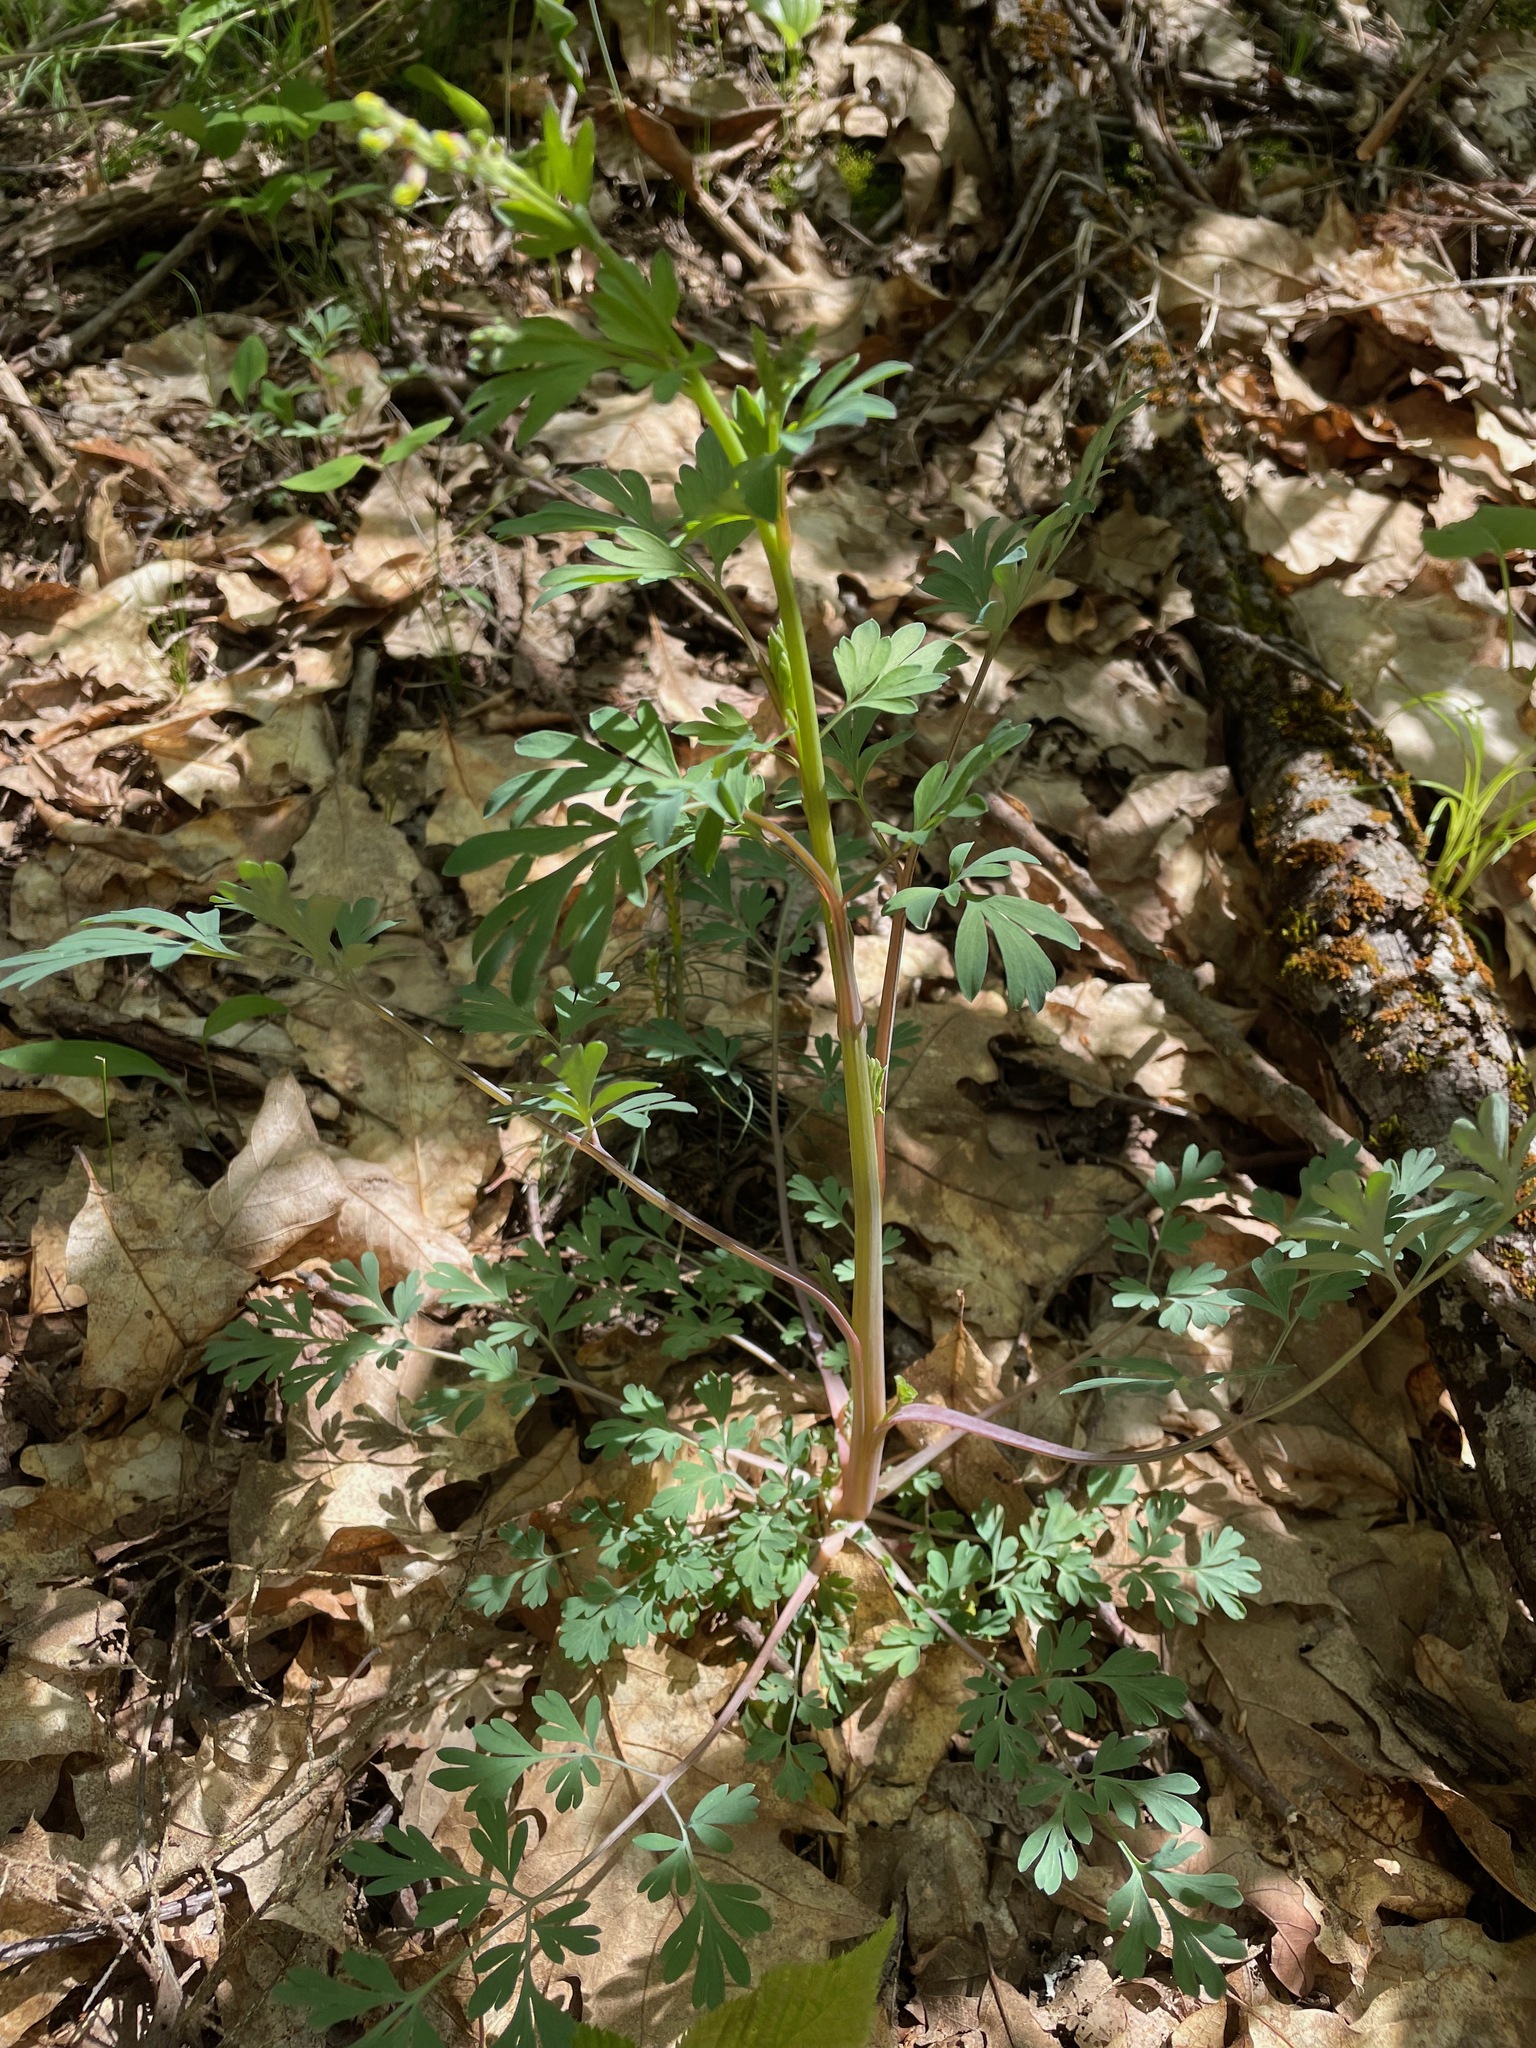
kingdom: Plantae
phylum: Tracheophyta
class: Magnoliopsida
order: Ranunculales
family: Papaveraceae
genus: Capnoides
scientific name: Capnoides sempervirens
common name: Rock harlequin
